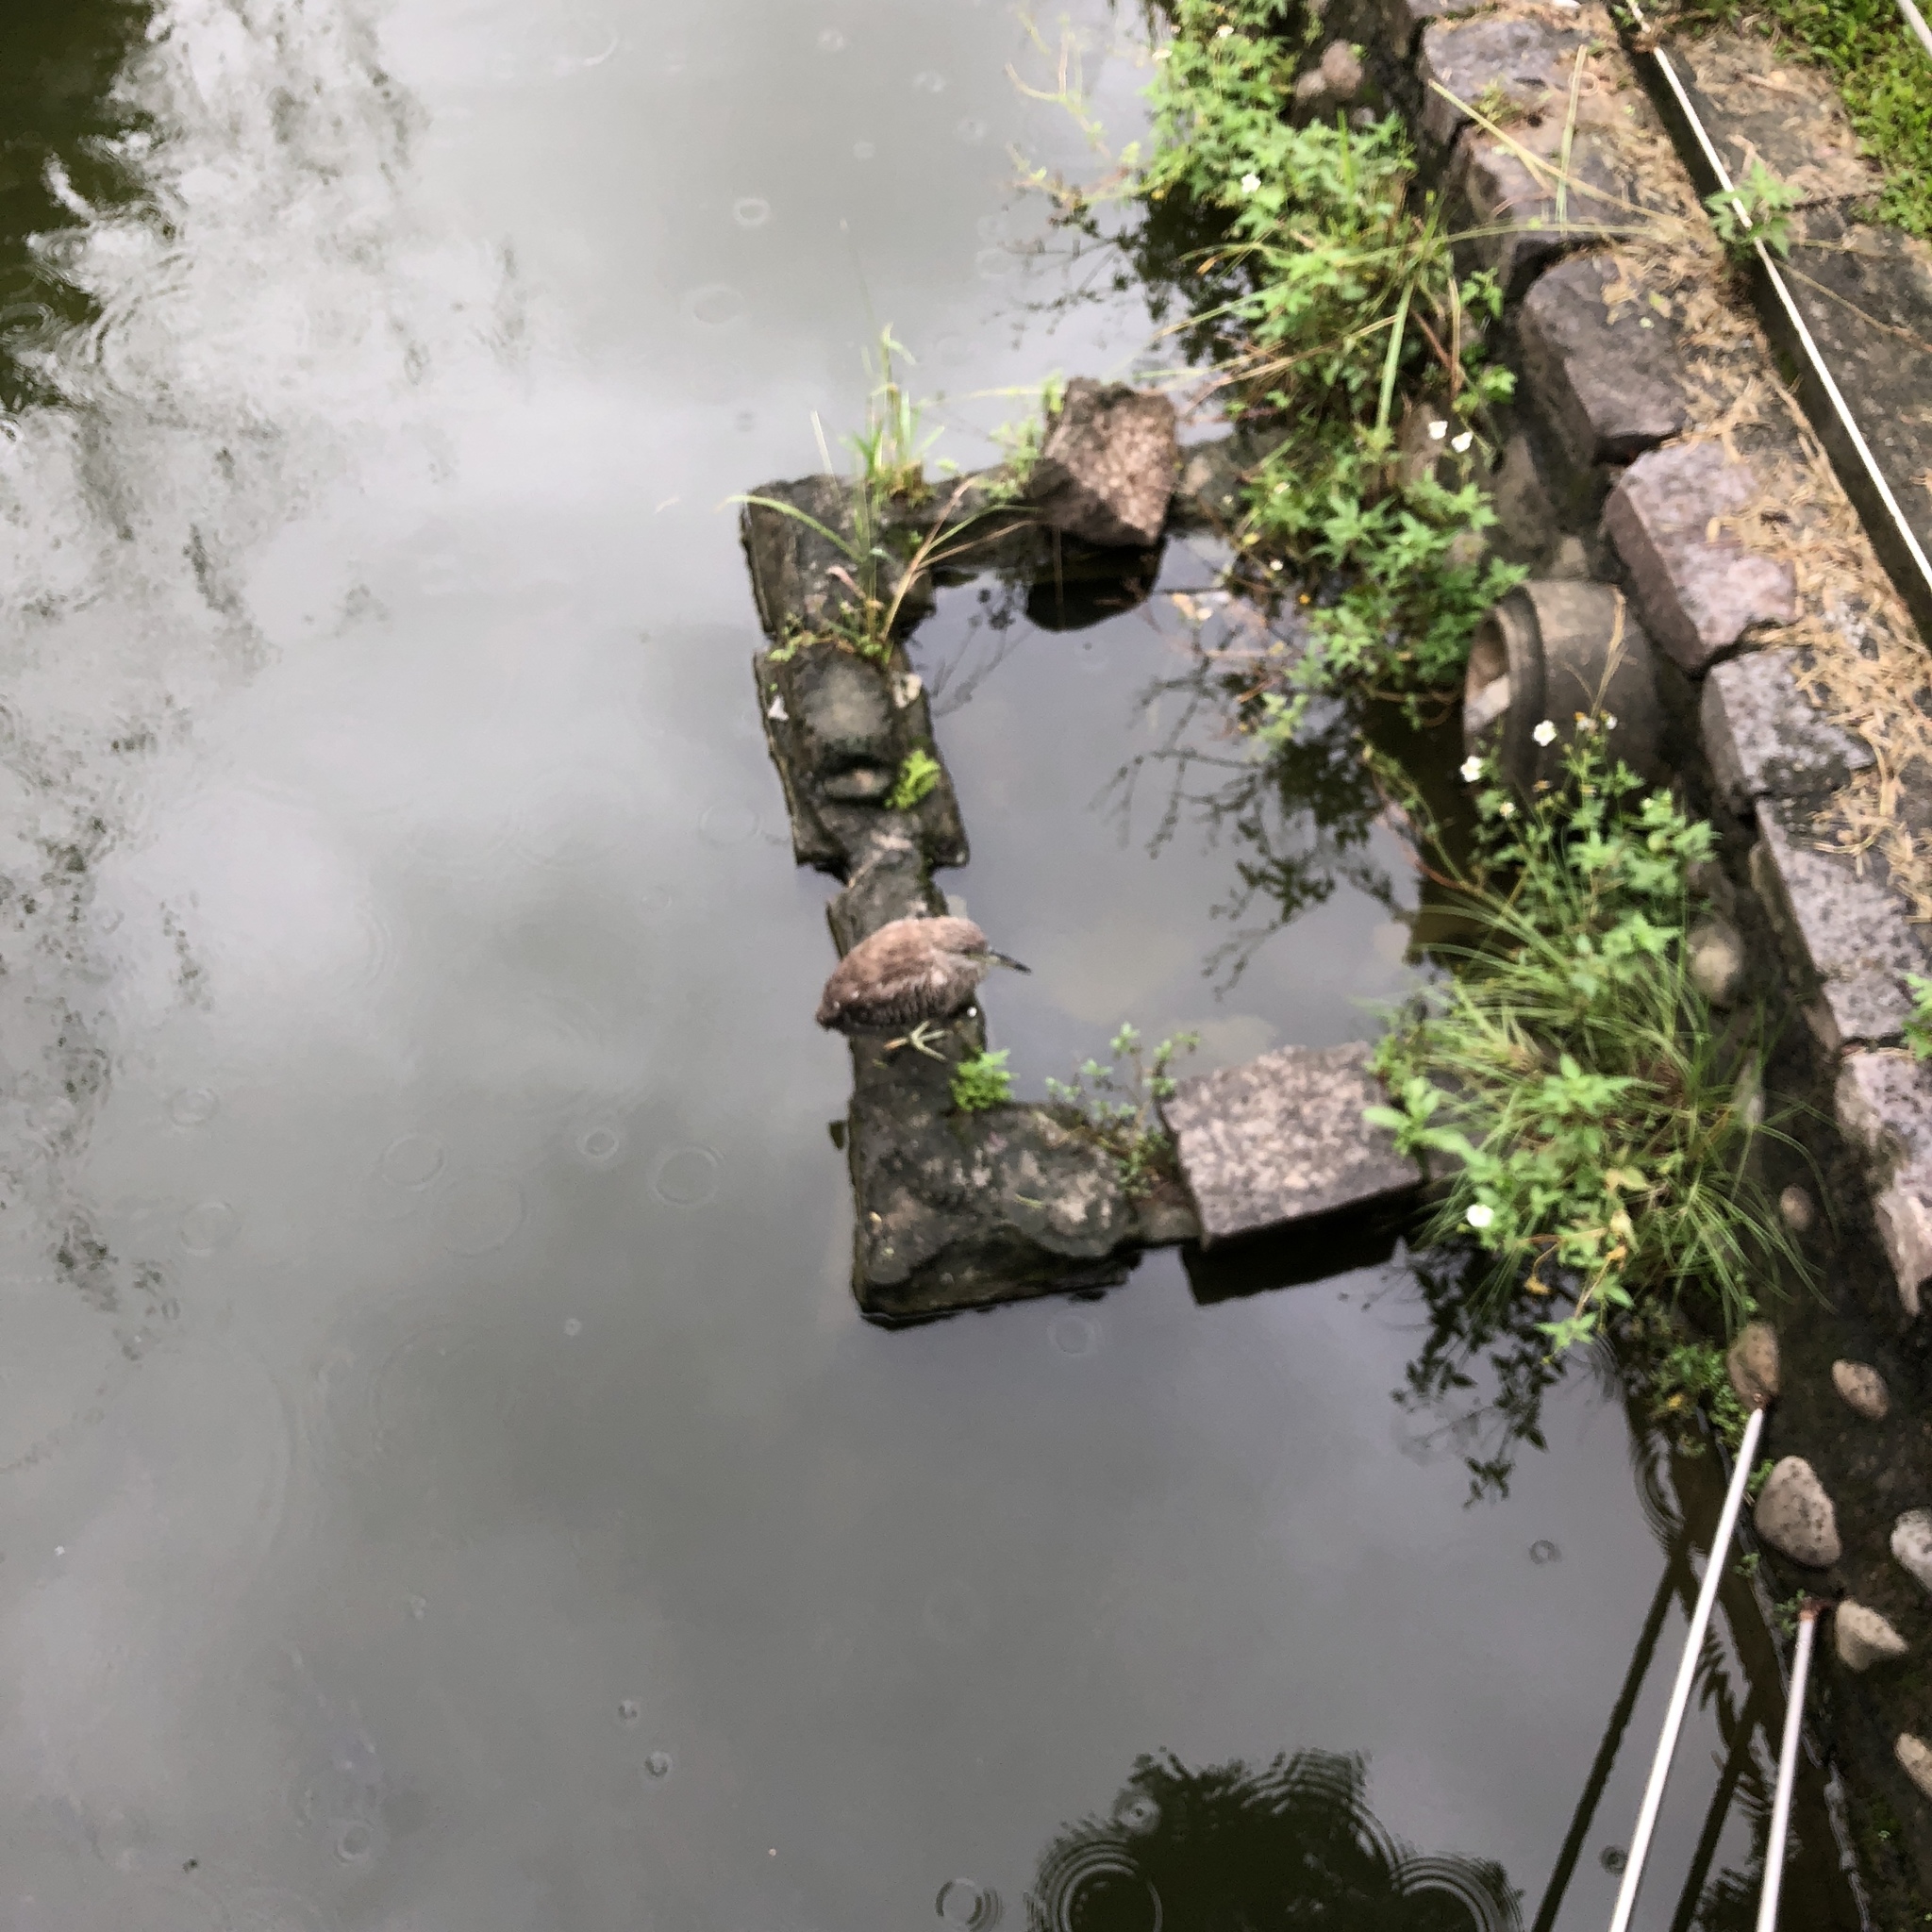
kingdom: Animalia
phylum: Chordata
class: Aves
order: Pelecaniformes
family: Ardeidae
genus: Nycticorax
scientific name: Nycticorax nycticorax
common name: Black-crowned night heron
